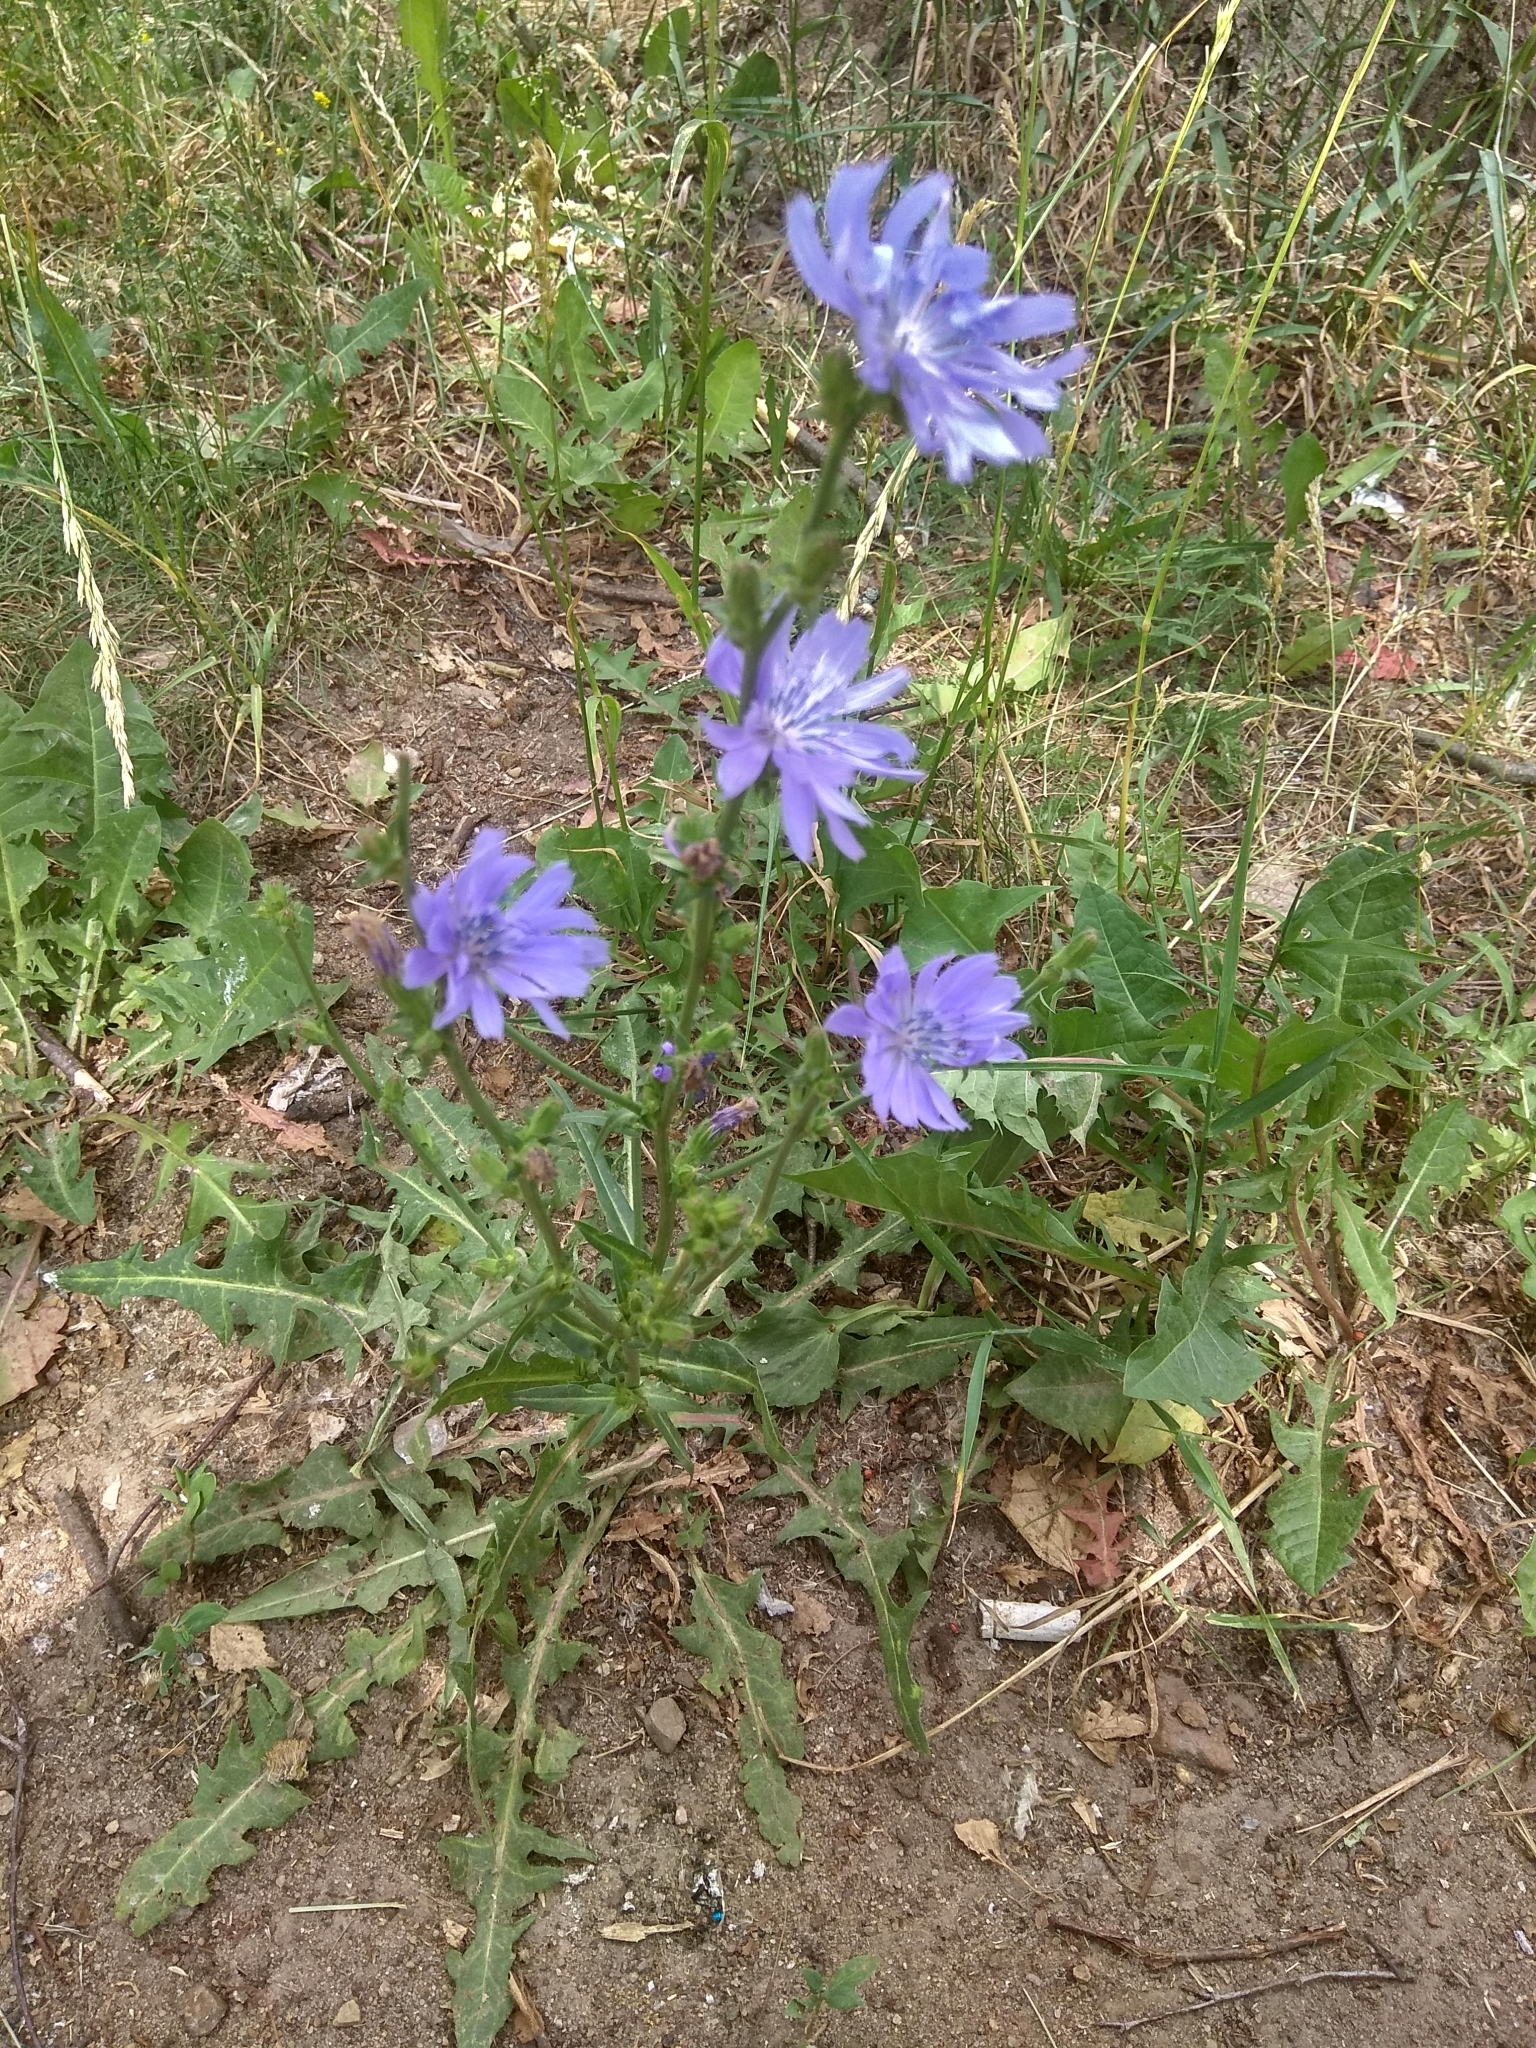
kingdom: Plantae
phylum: Tracheophyta
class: Magnoliopsida
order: Asterales
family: Asteraceae
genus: Cichorium
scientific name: Cichorium intybus
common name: Chicory
